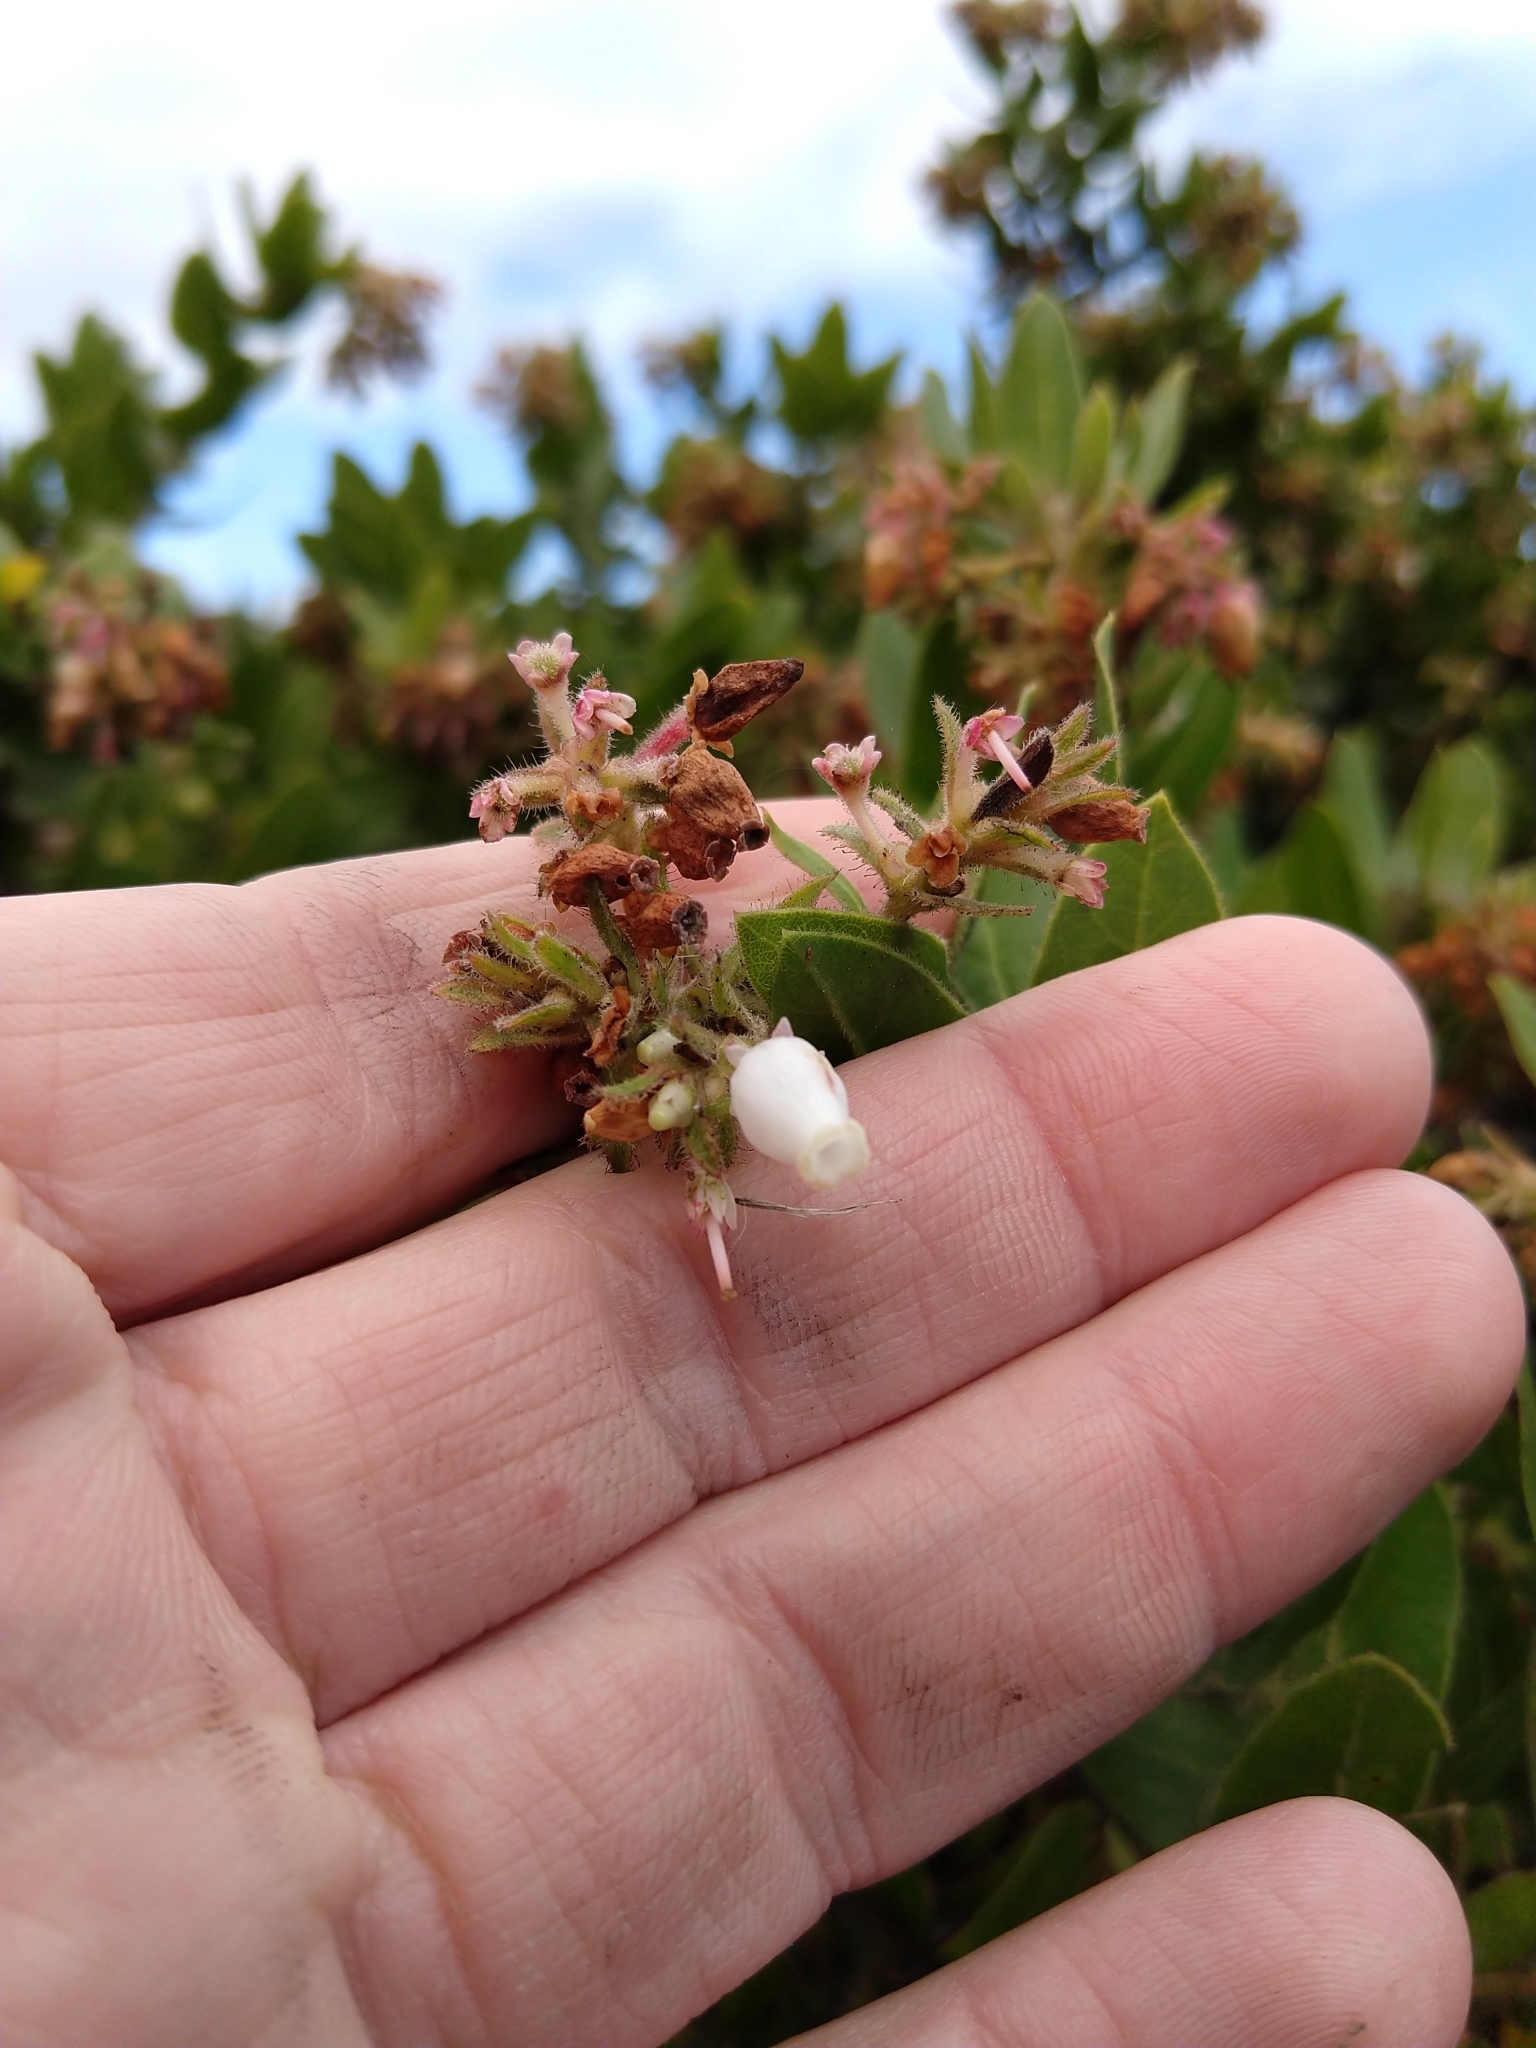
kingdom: Plantae
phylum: Tracheophyta
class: Magnoliopsida
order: Ericales
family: Ericaceae
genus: Arctostaphylos
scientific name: Arctostaphylos montaraensis
